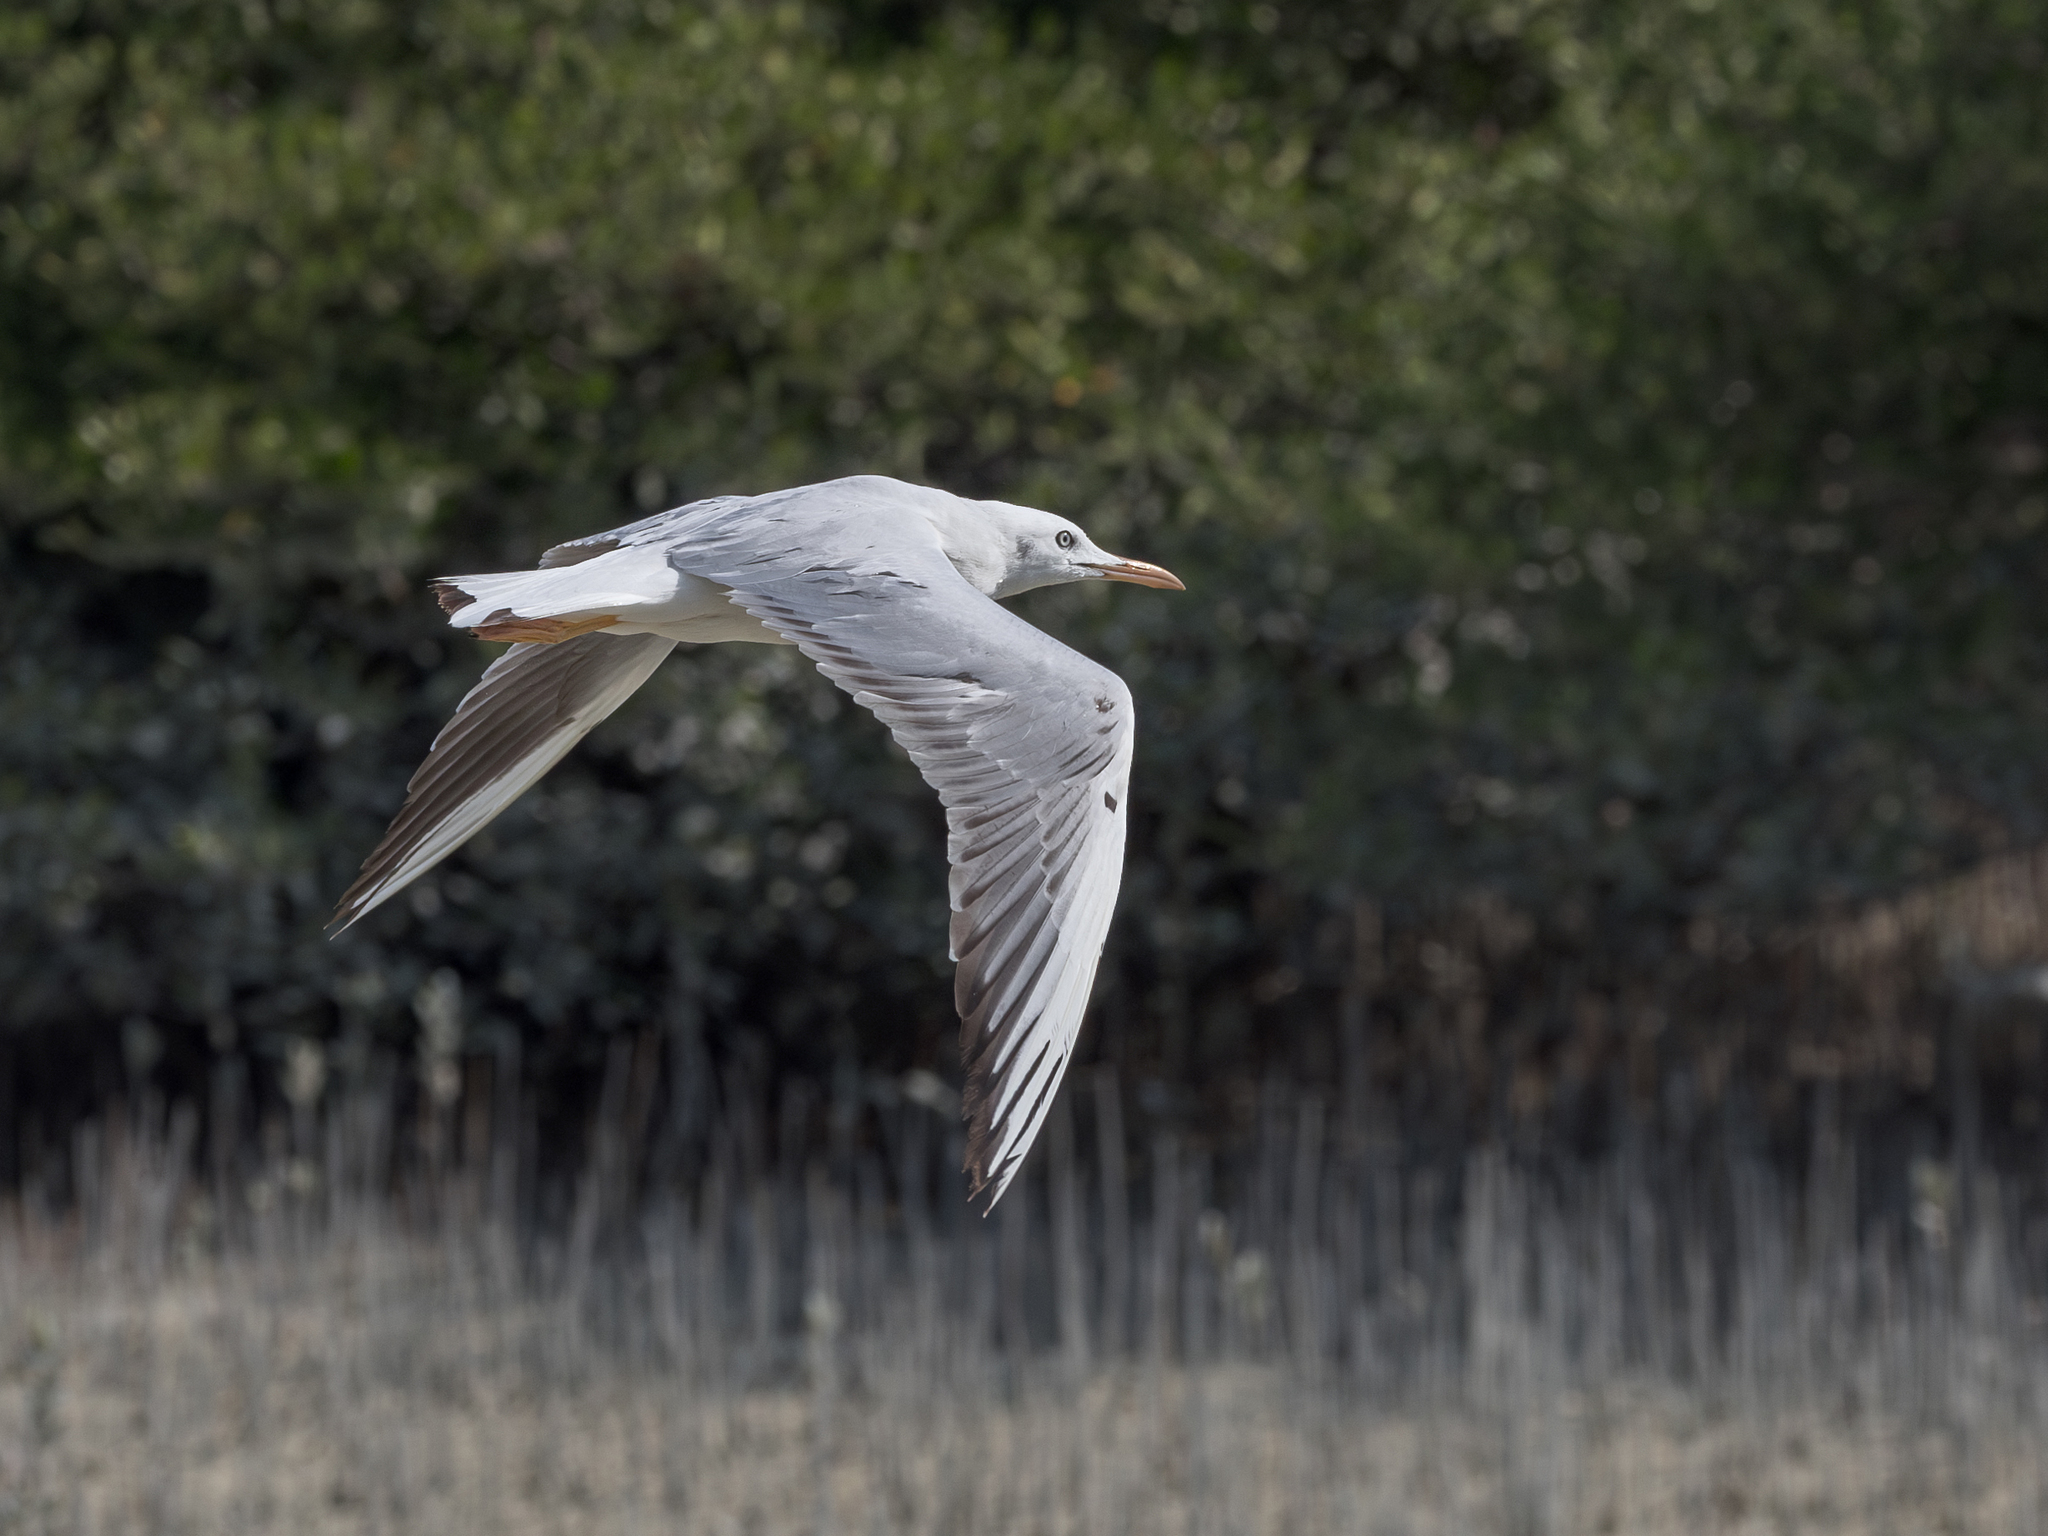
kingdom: Animalia
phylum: Chordata
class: Aves
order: Charadriiformes
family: Laridae
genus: Chroicocephalus
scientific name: Chroicocephalus genei
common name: Slender-billed gull
